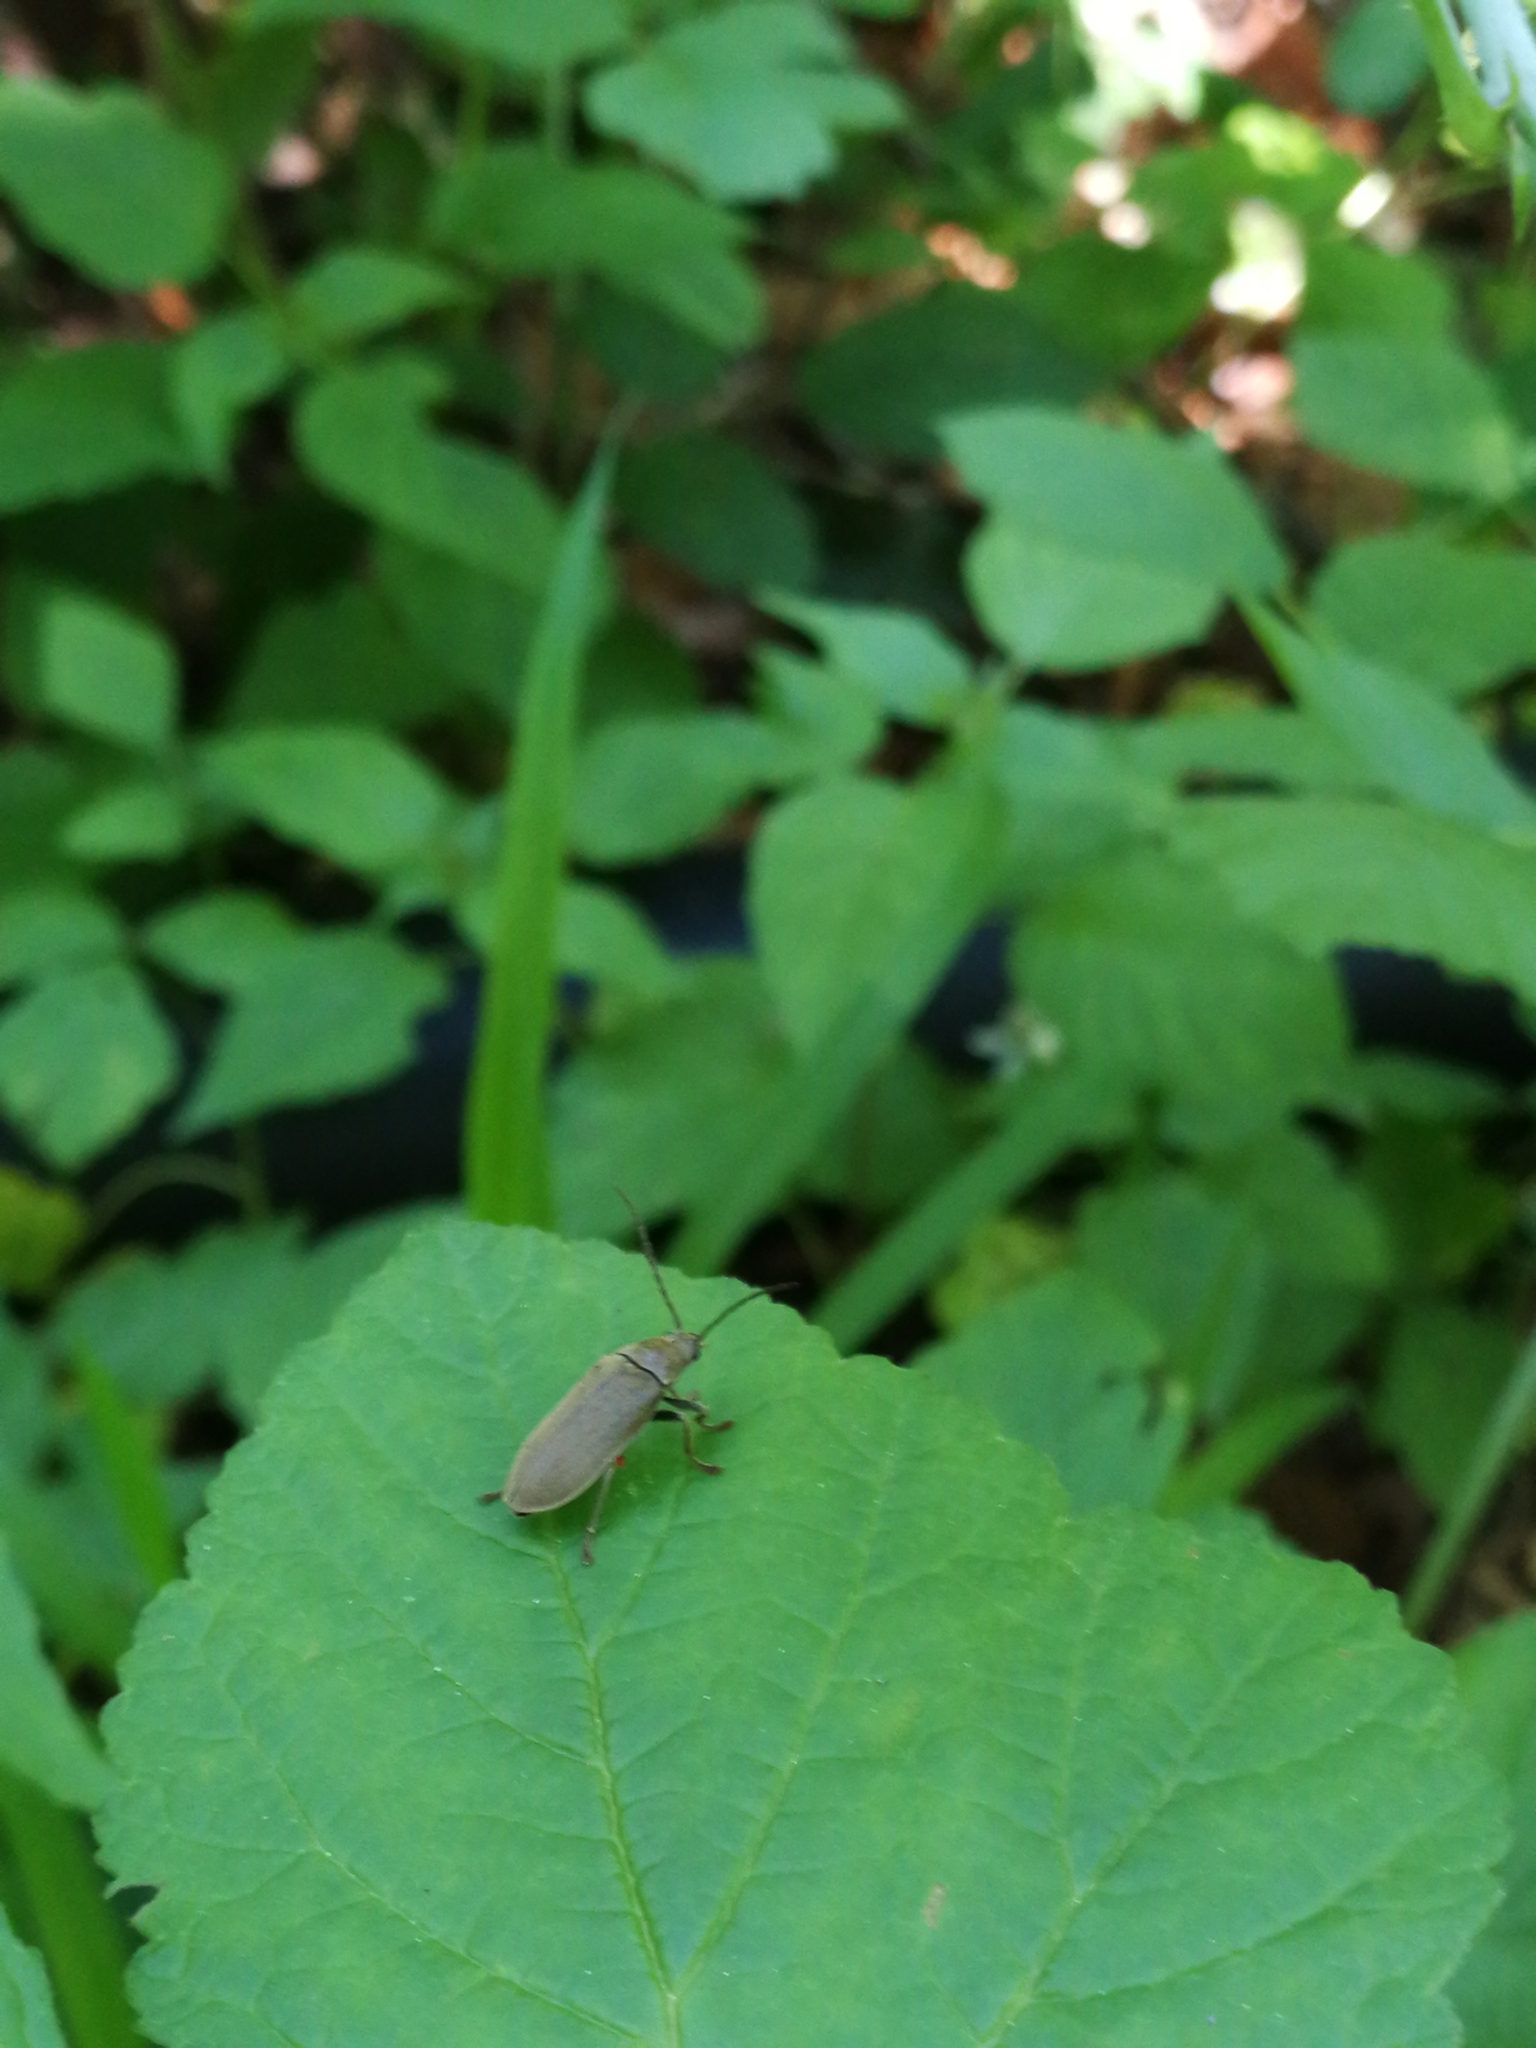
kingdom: Animalia
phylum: Arthropoda
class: Insecta
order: Coleoptera
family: Dascillidae
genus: Dascillus
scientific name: Dascillus cervinus
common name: Orchid beetle
